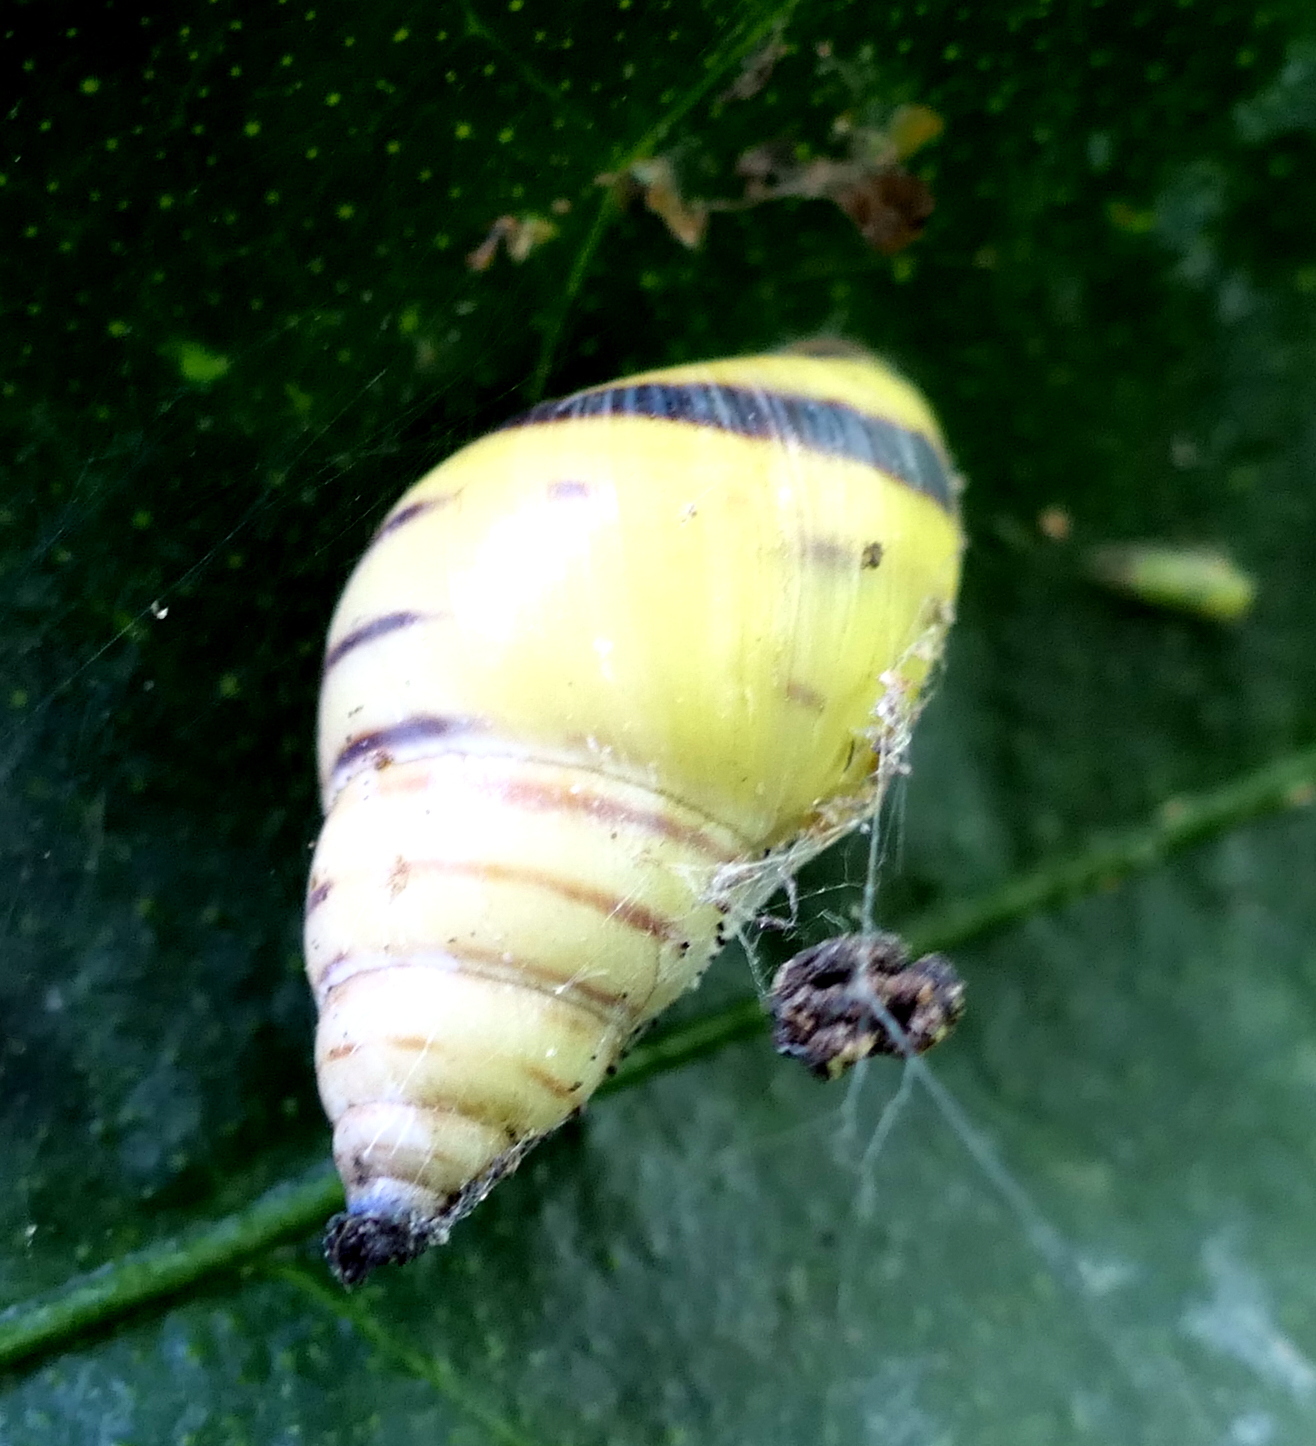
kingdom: Animalia
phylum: Mollusca
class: Gastropoda
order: Stylommatophora
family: Bulimulidae
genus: Drymaeus
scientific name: Drymaeus
